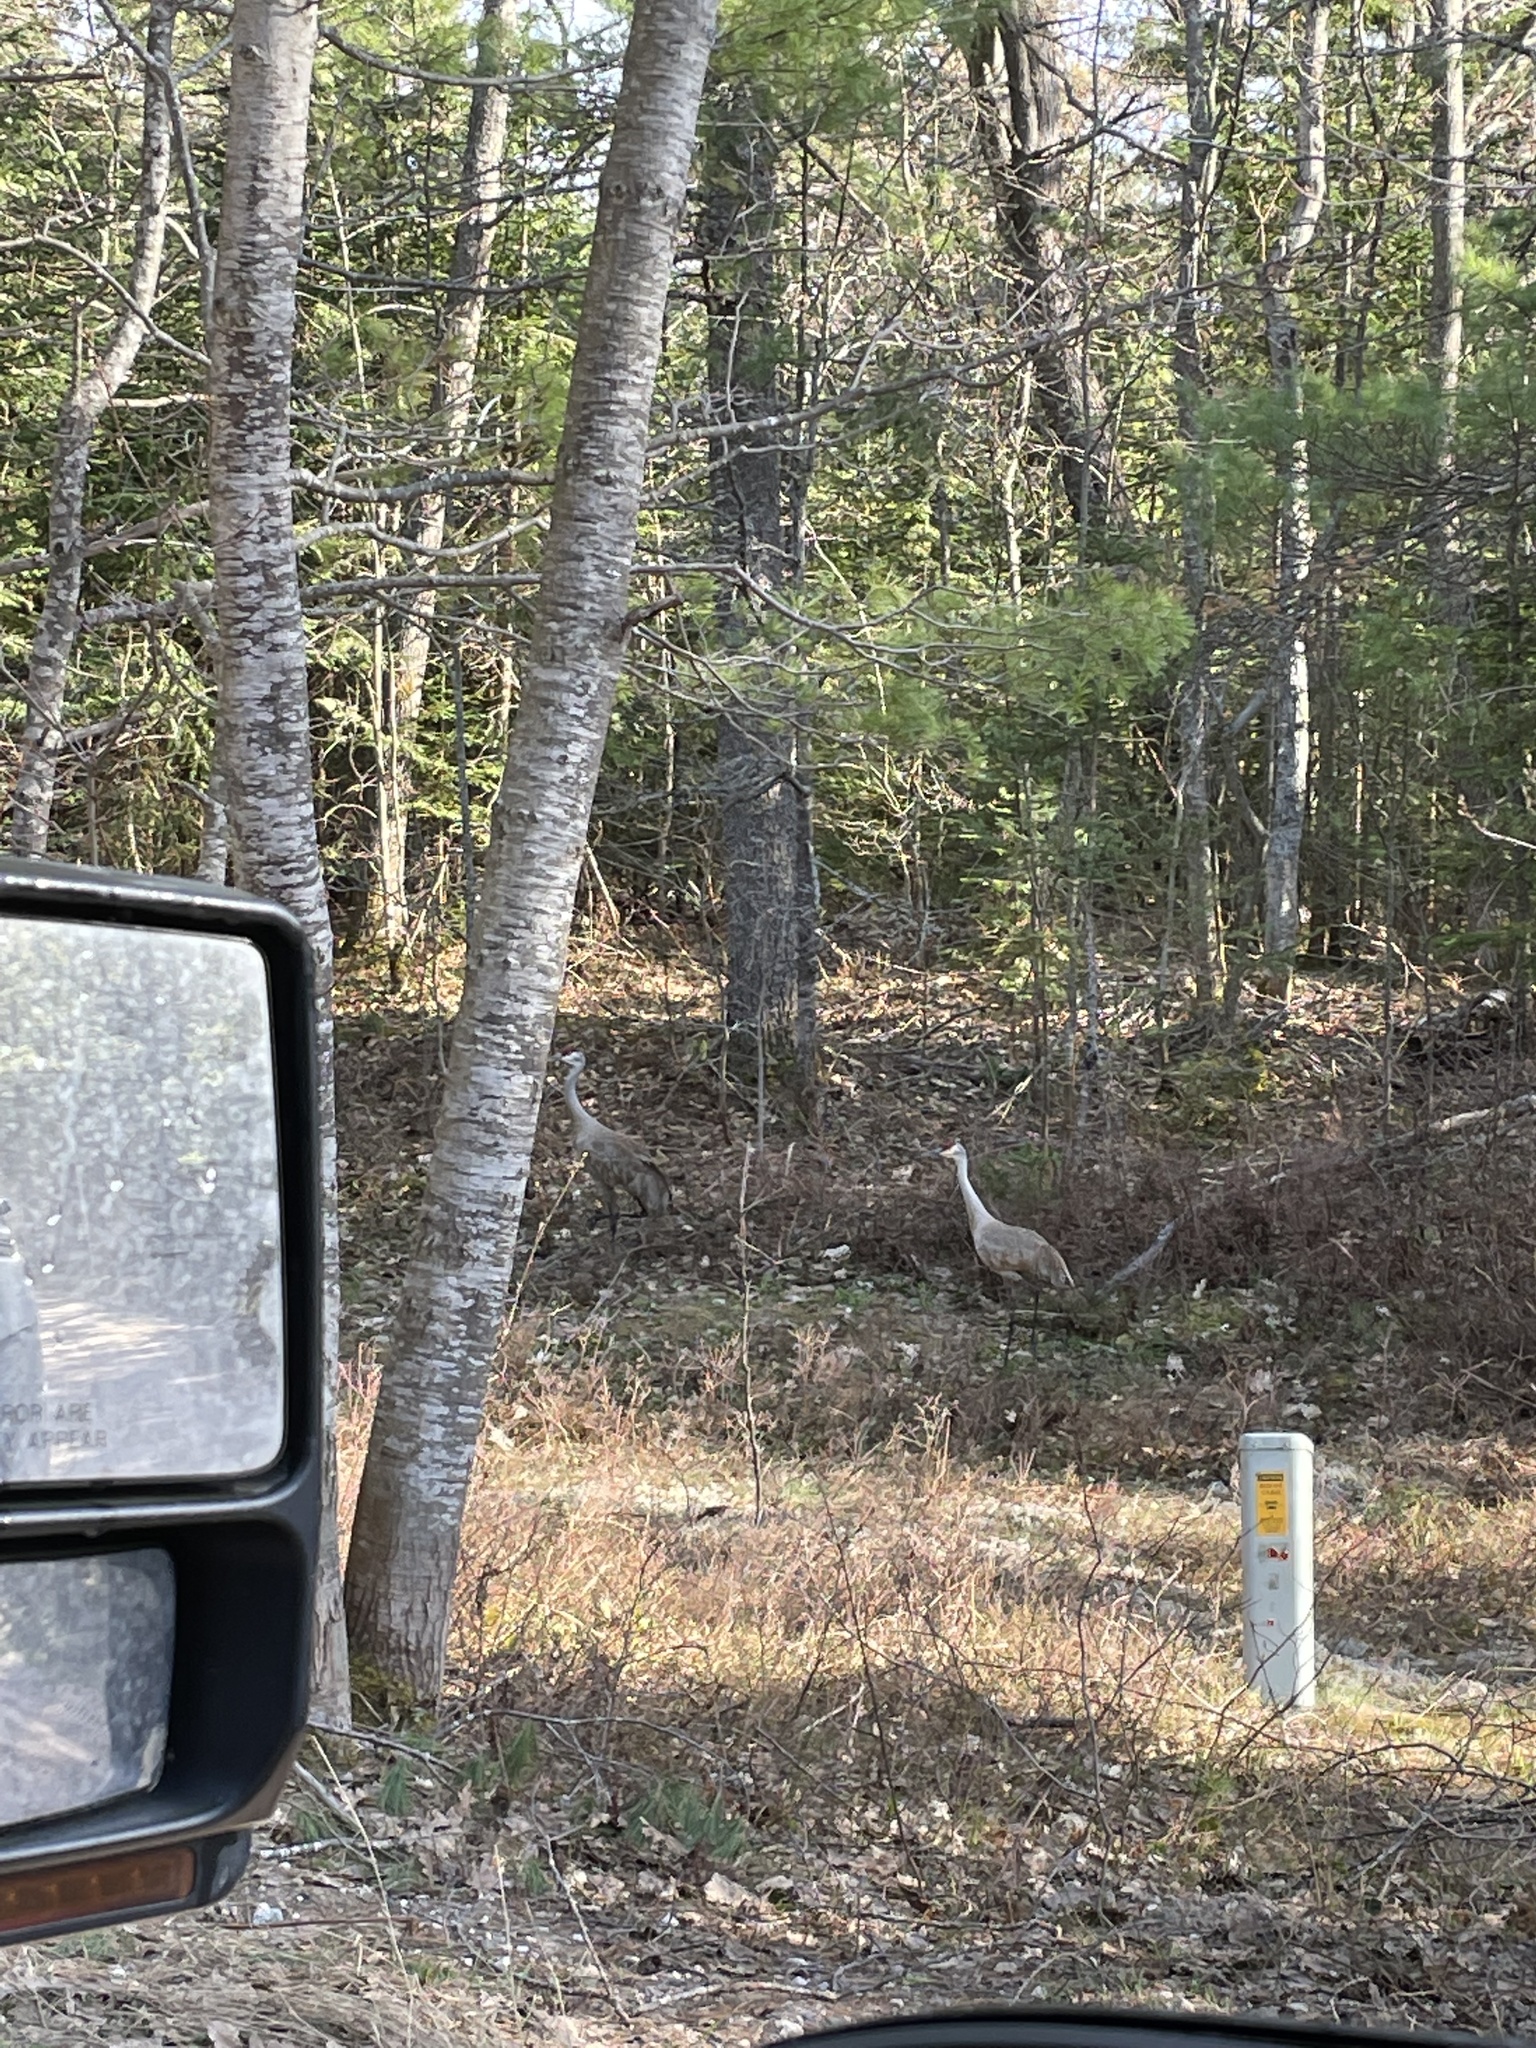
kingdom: Animalia
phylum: Chordata
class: Aves
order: Gruiformes
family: Gruidae
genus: Grus
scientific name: Grus canadensis
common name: Sandhill crane
